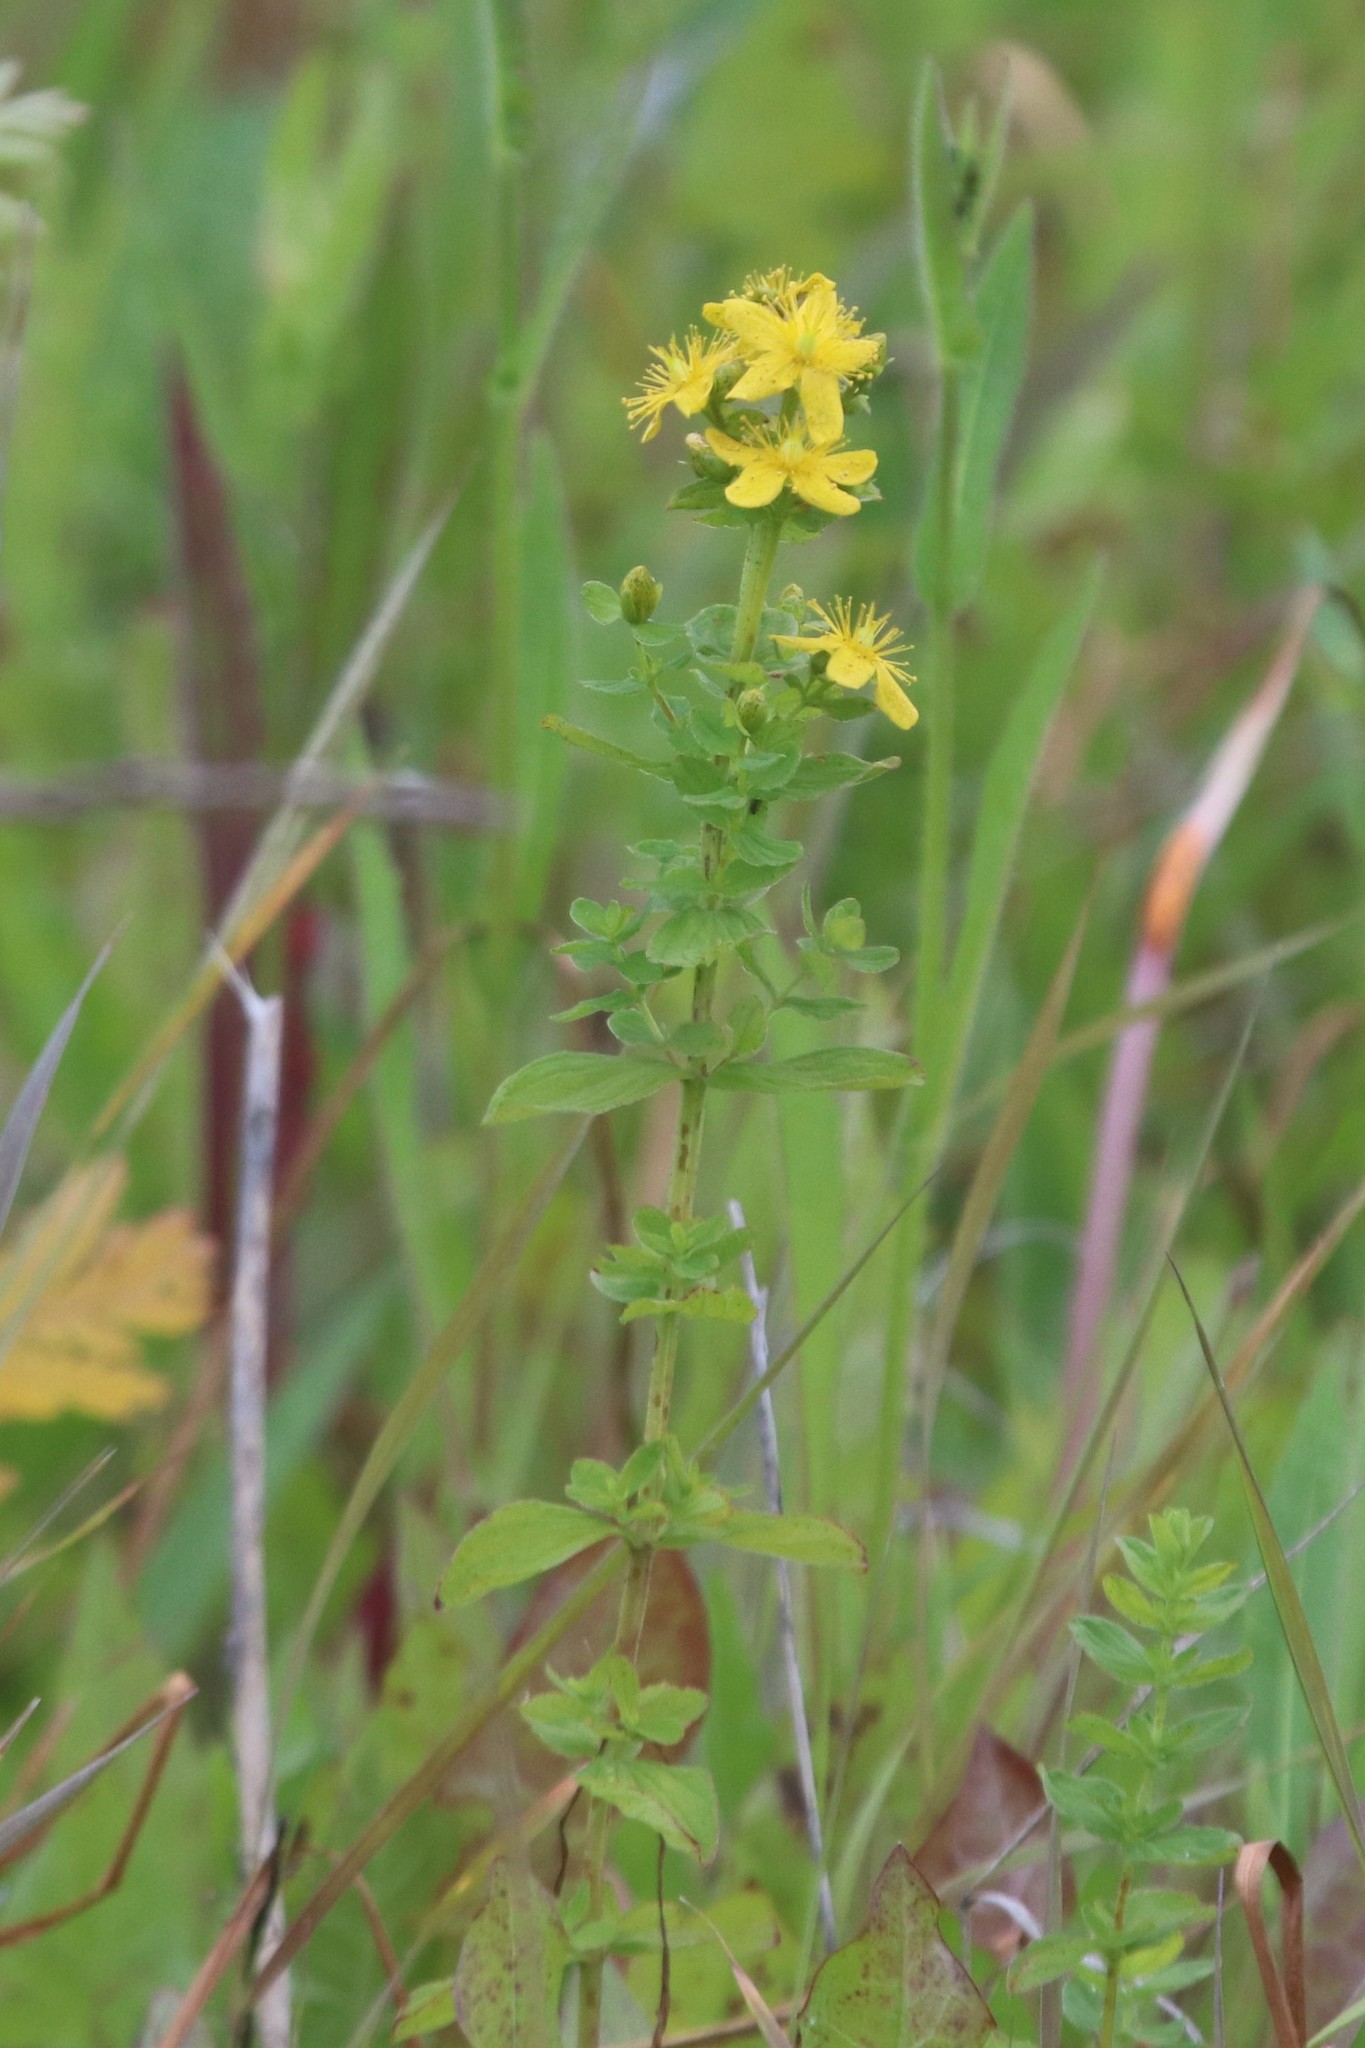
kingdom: Plantae
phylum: Tracheophyta
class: Magnoliopsida
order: Malpighiales
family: Hypericaceae
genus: Hypericum
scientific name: Hypericum maculatum
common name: Imperforate st. john's-wort
